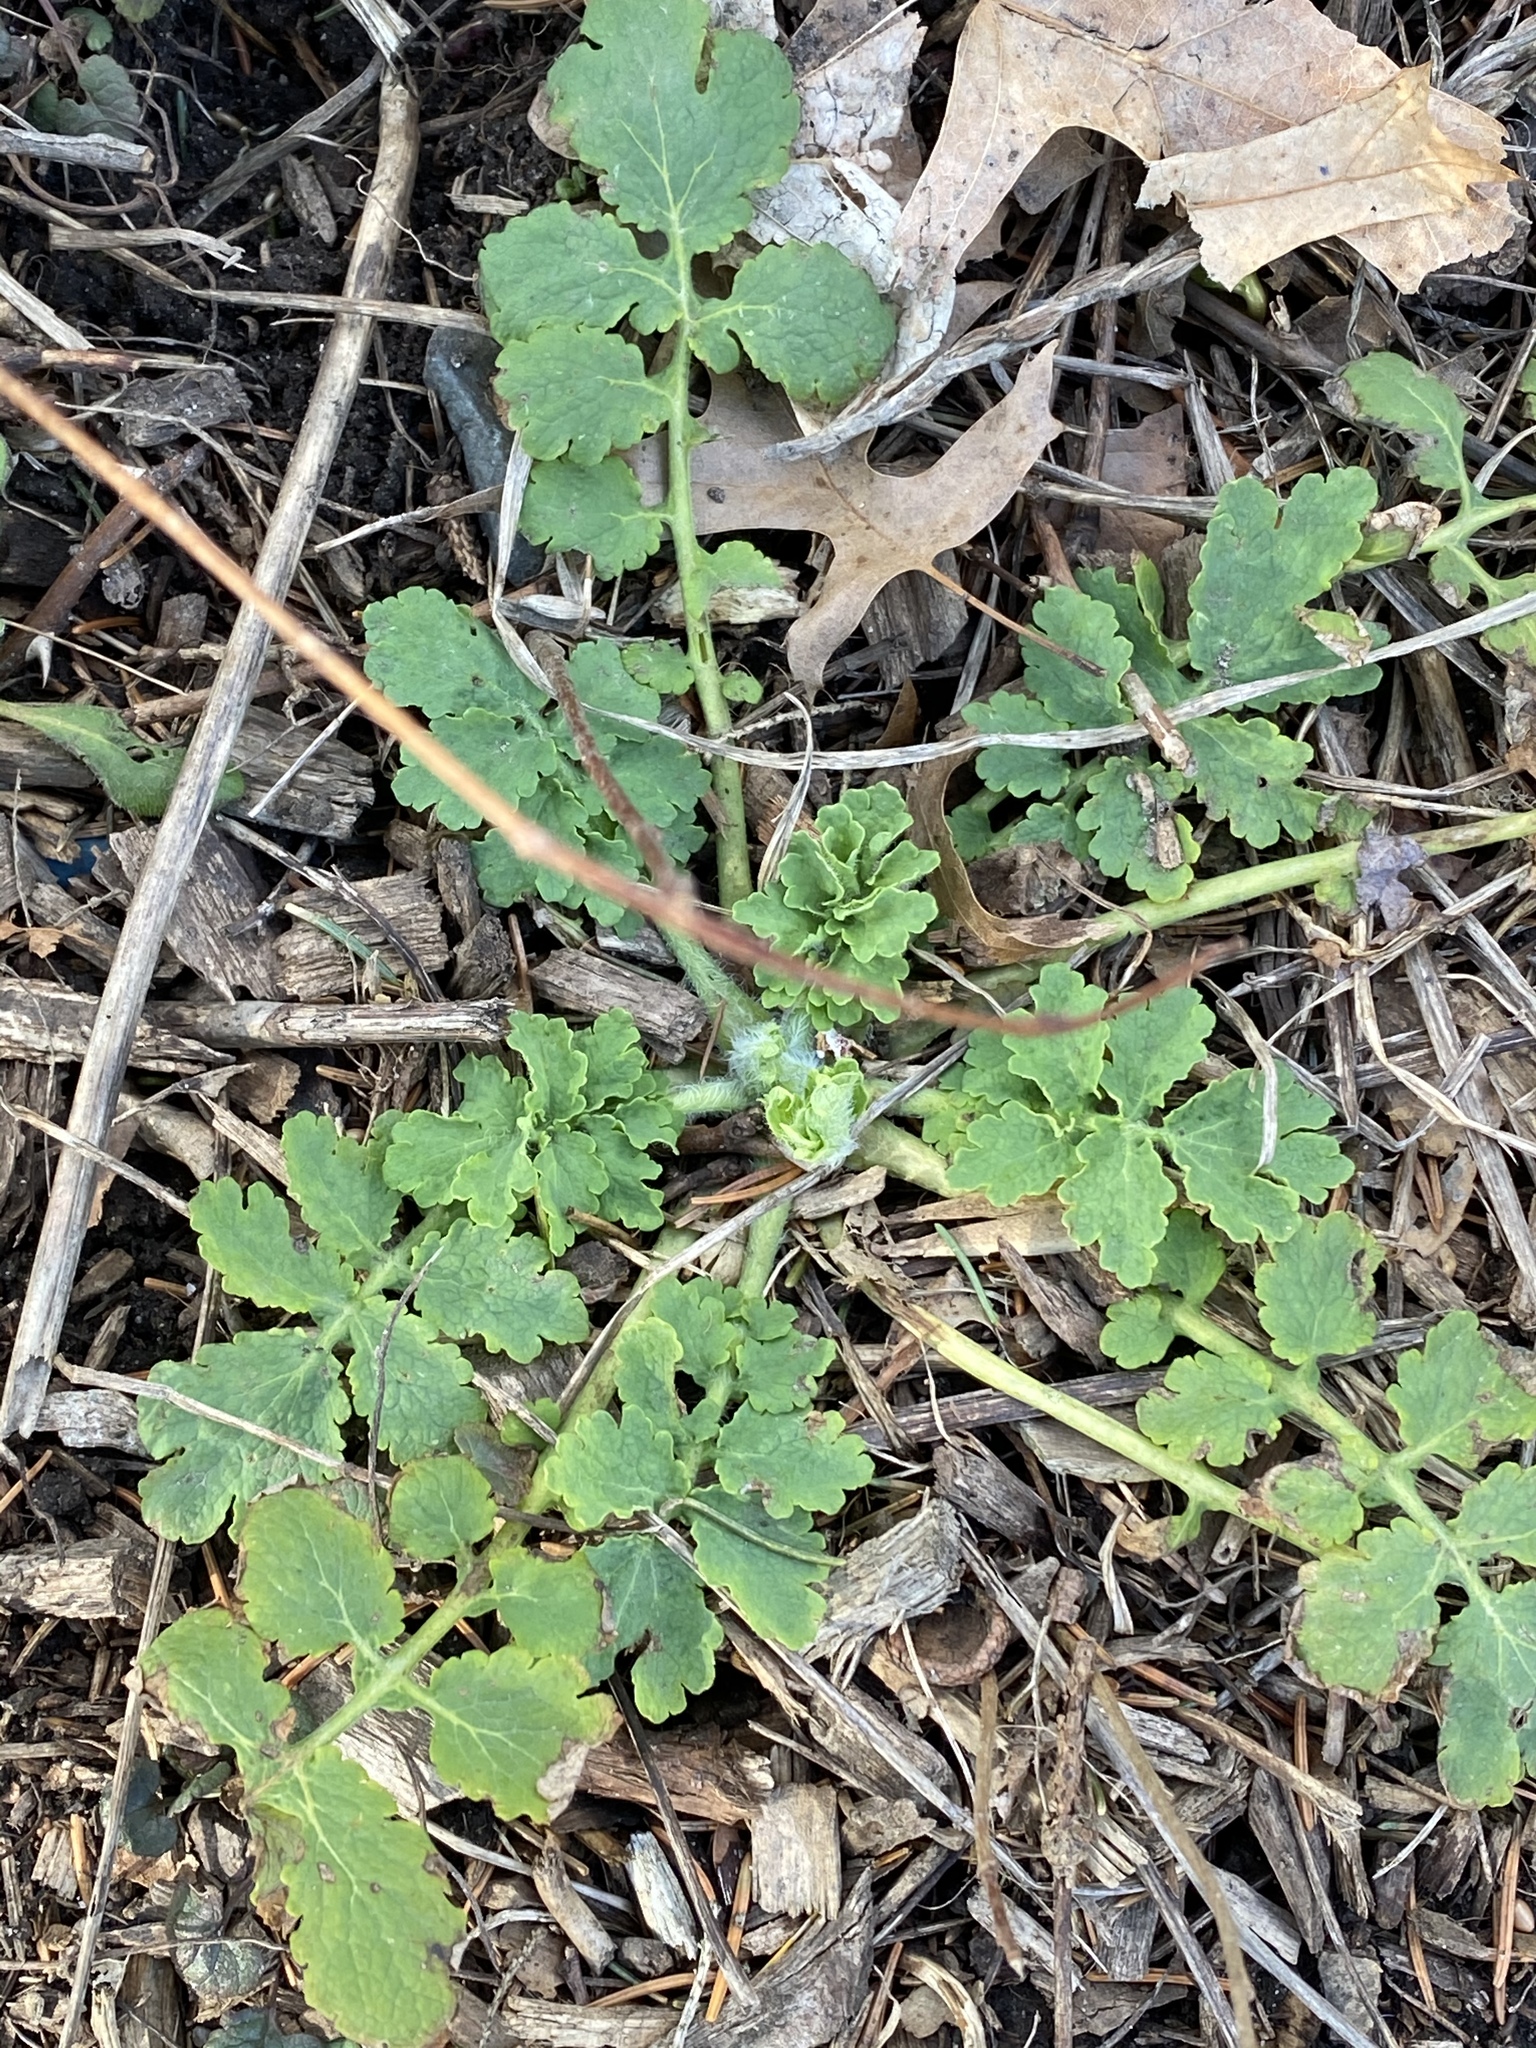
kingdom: Plantae
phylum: Tracheophyta
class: Magnoliopsida
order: Ranunculales
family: Papaveraceae
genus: Chelidonium
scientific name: Chelidonium majus
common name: Greater celandine
